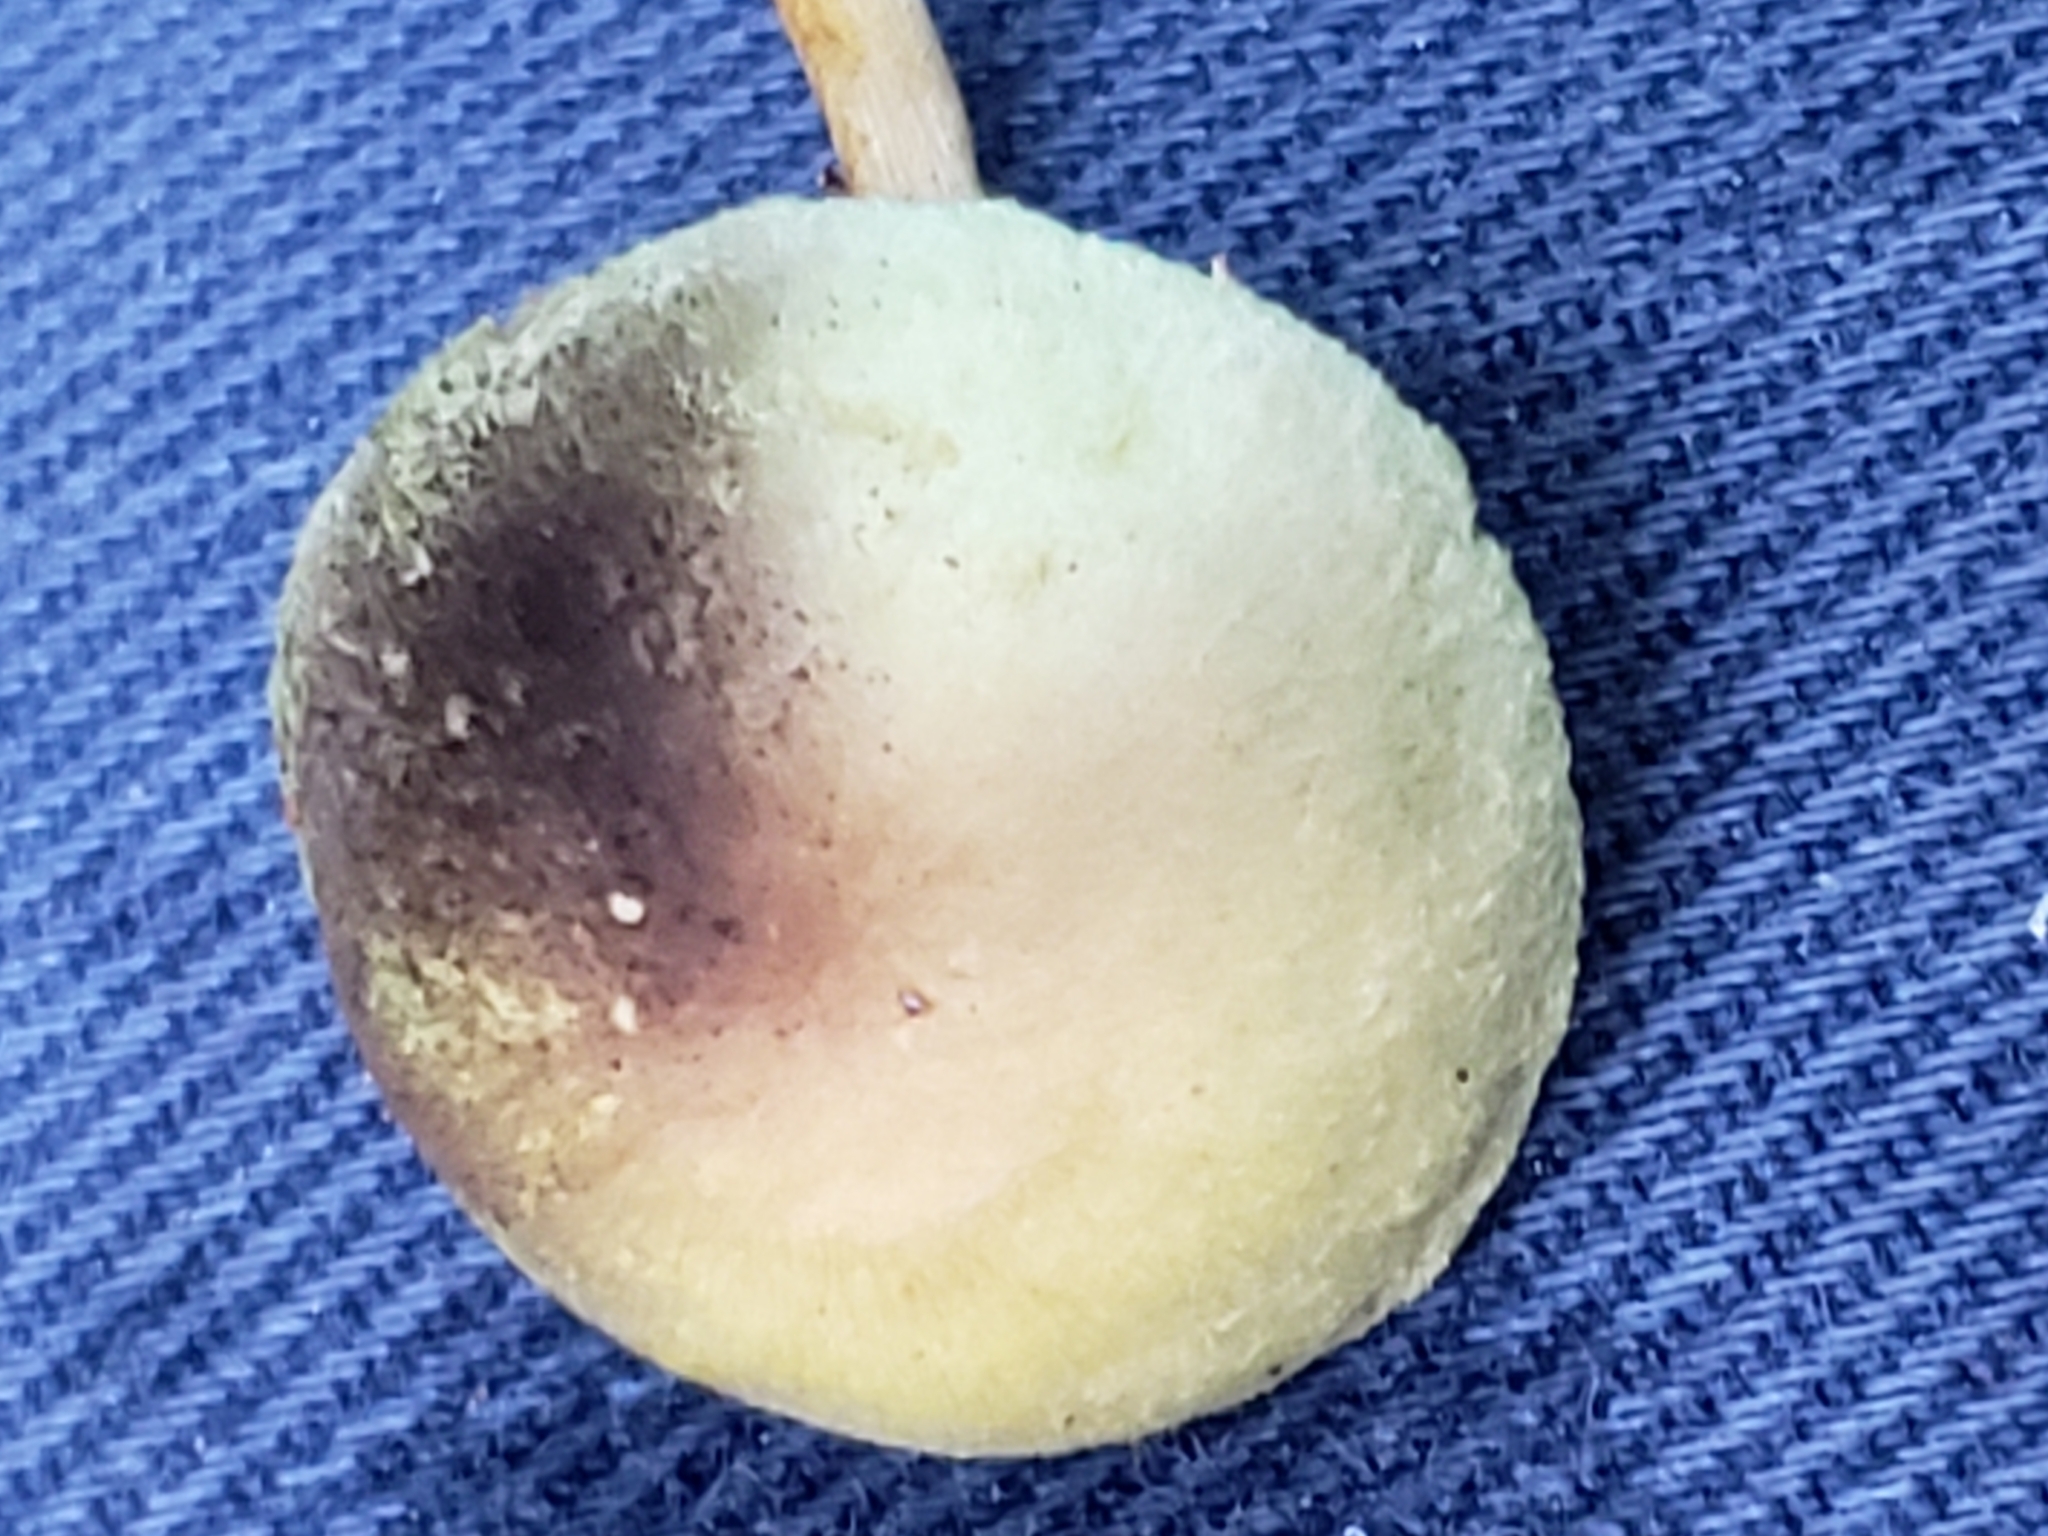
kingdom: Fungi
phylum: Basidiomycota
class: Agaricomycetes
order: Agaricales
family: Strophariaceae
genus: Hypholoma
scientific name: Hypholoma fasciculare
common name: Sulphur tuft
